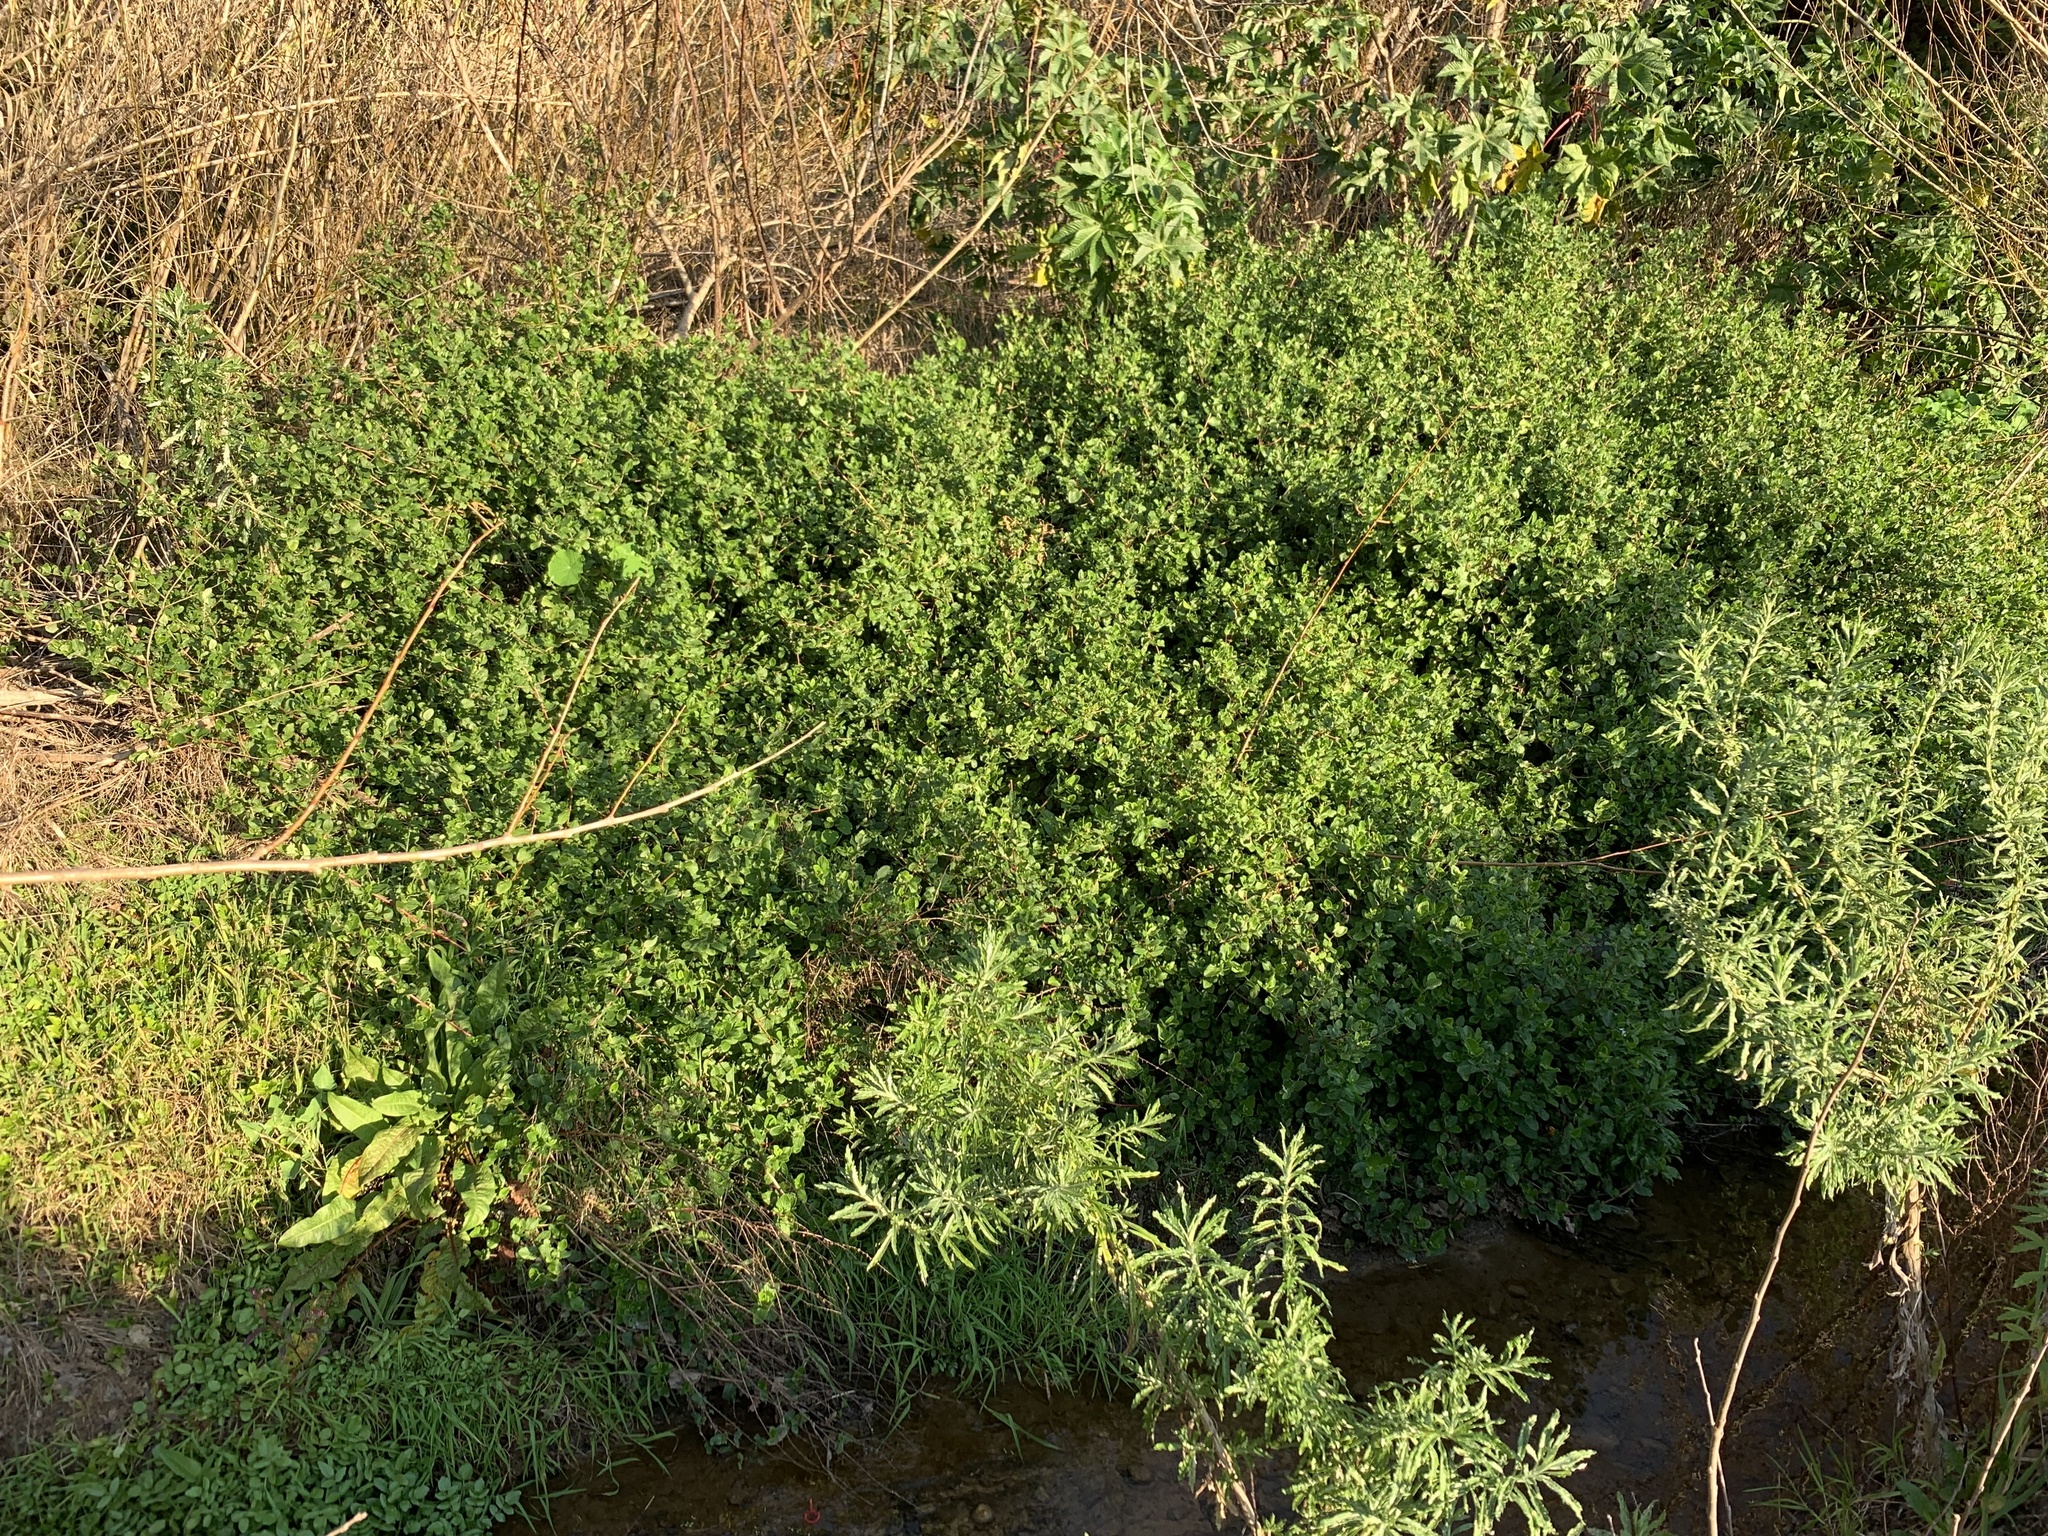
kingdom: Plantae
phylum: Tracheophyta
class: Magnoliopsida
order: Rosales
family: Rosaceae
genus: Cliffortia
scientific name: Cliffortia odorata
